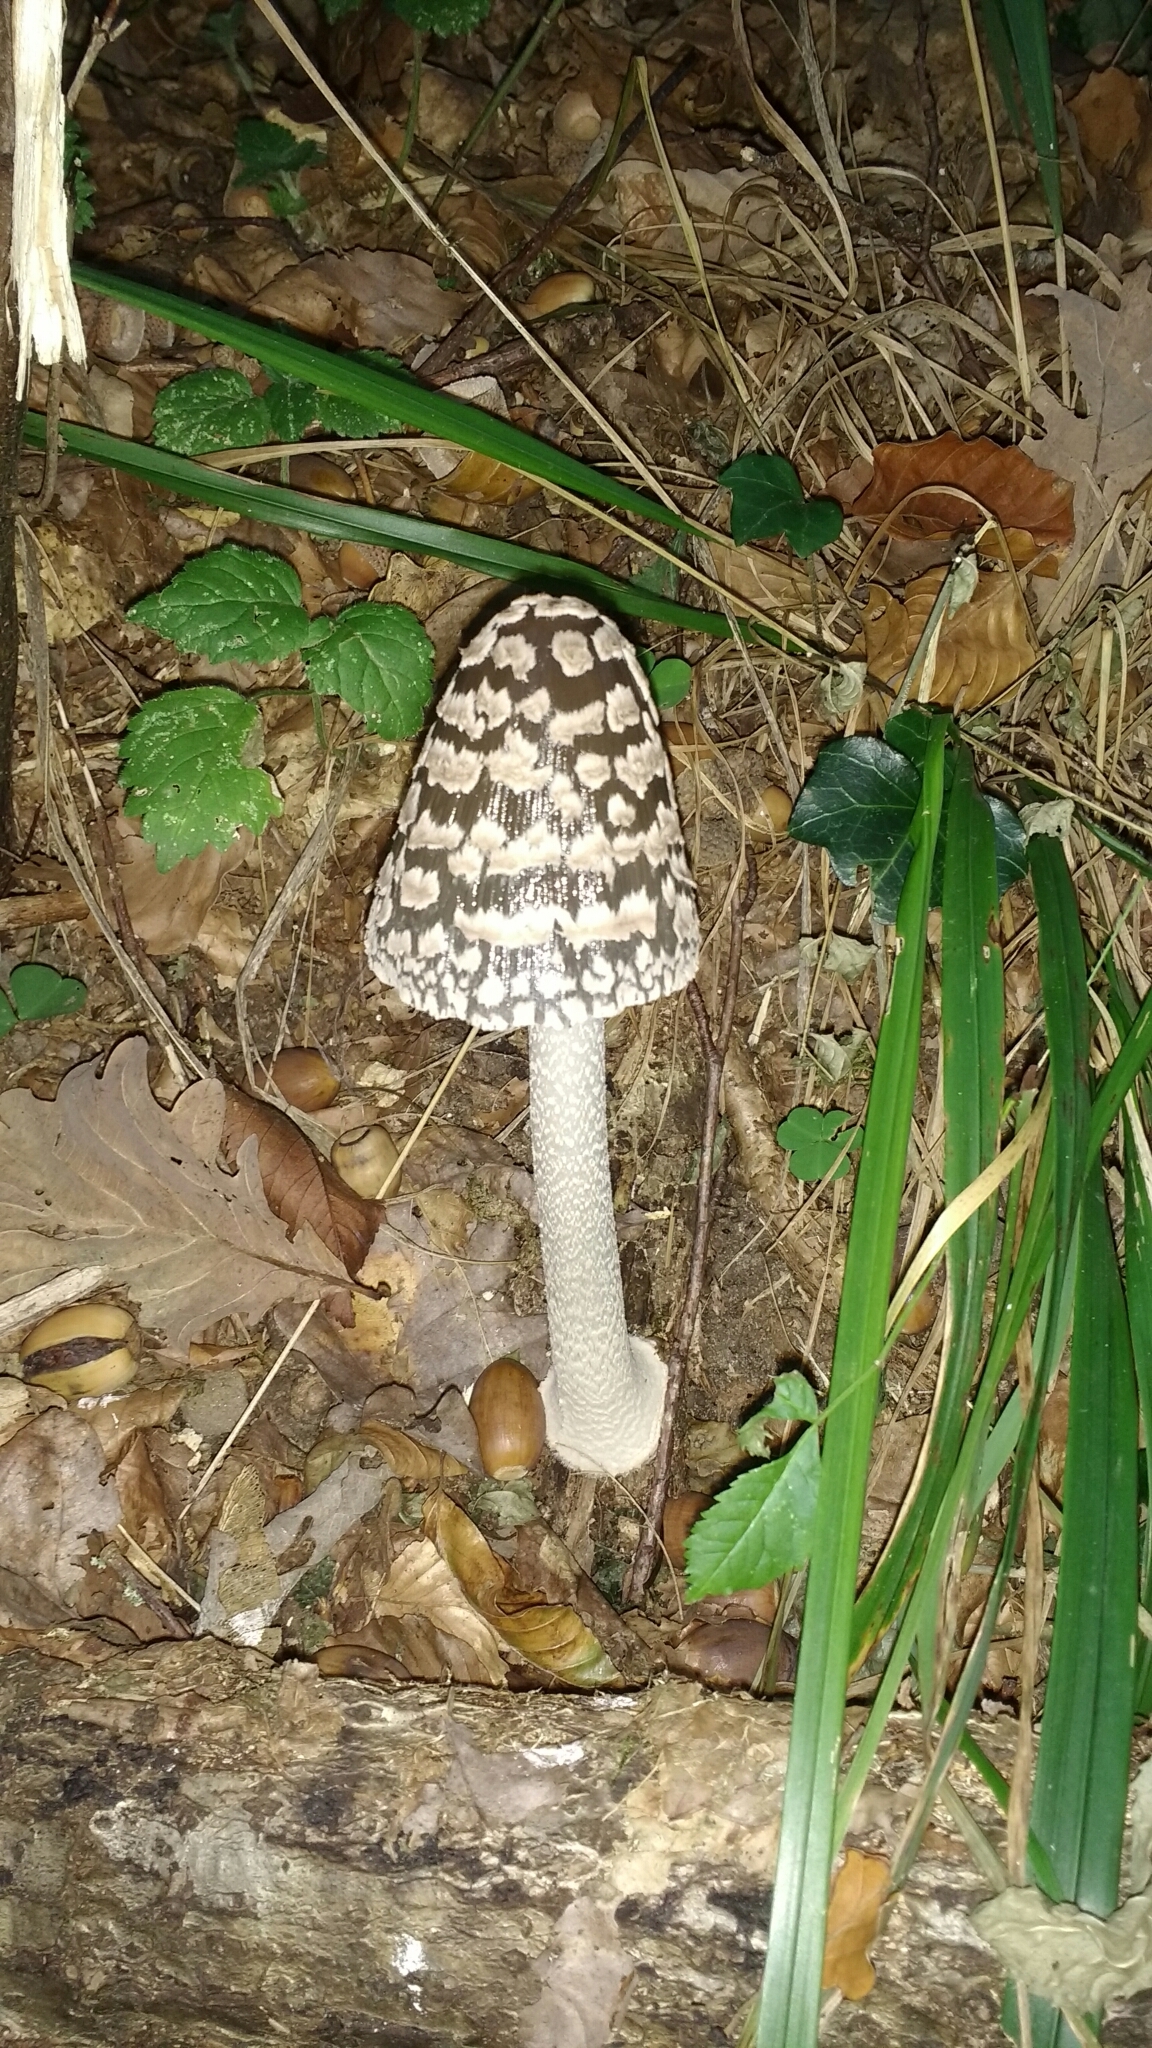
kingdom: Fungi
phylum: Basidiomycota
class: Agaricomycetes
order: Agaricales
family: Psathyrellaceae
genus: Coprinopsis
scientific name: Coprinopsis picacea
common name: Magpie inkcap
